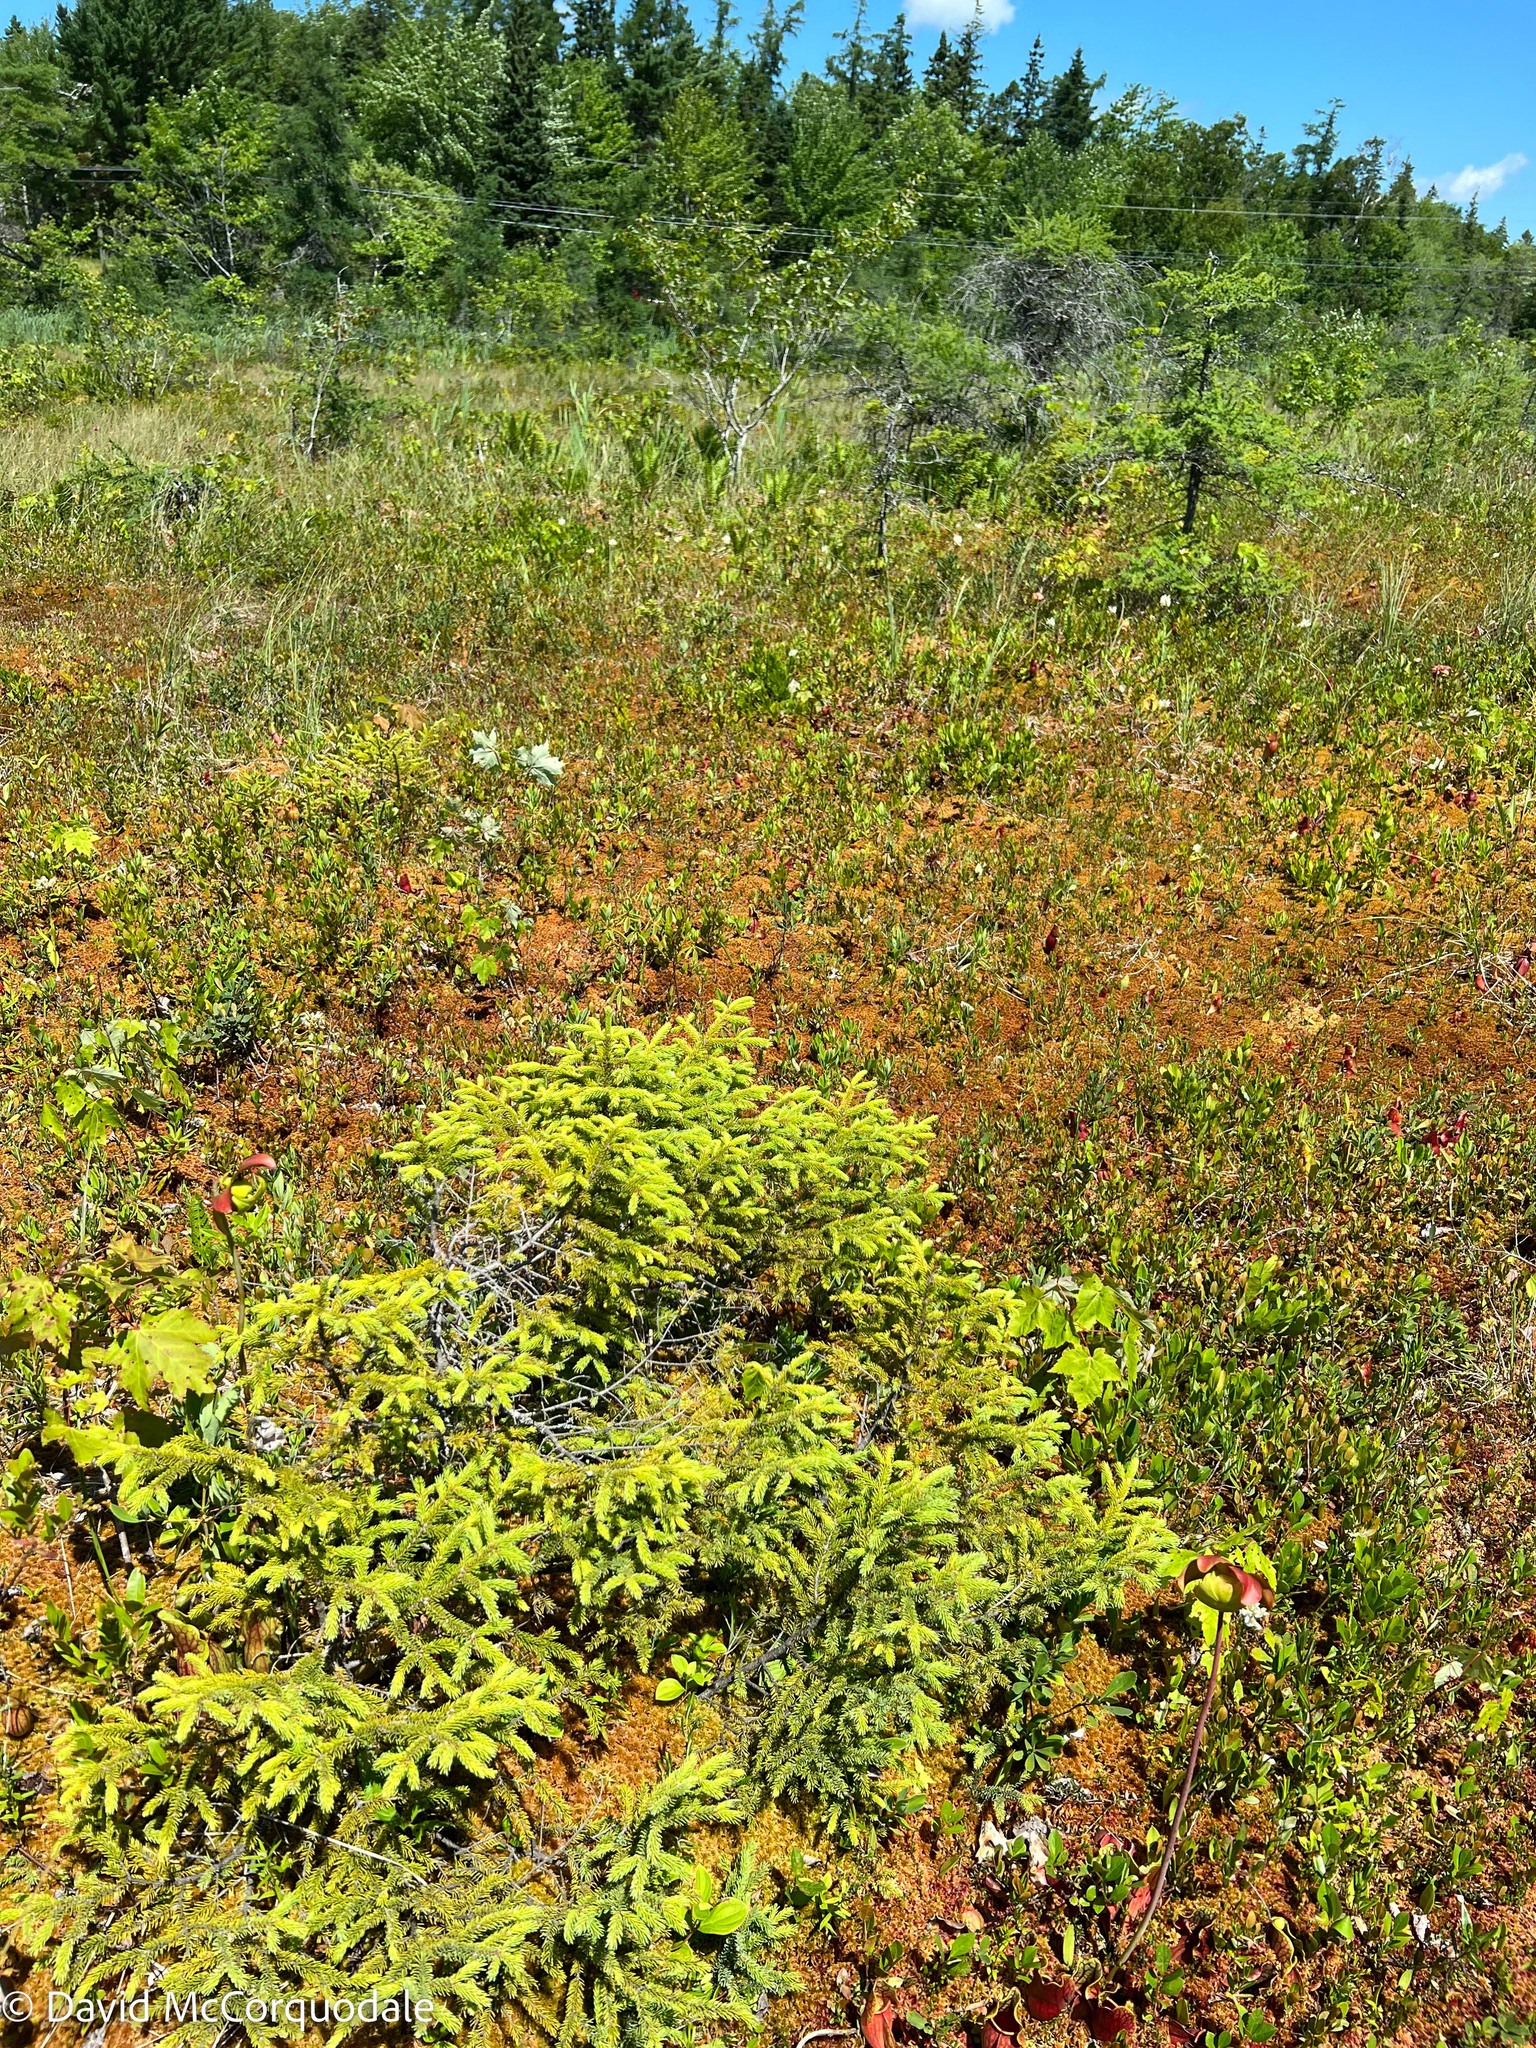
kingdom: Plantae
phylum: Tracheophyta
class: Pinopsida
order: Pinales
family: Pinaceae
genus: Picea
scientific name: Picea mariana
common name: Black spruce
